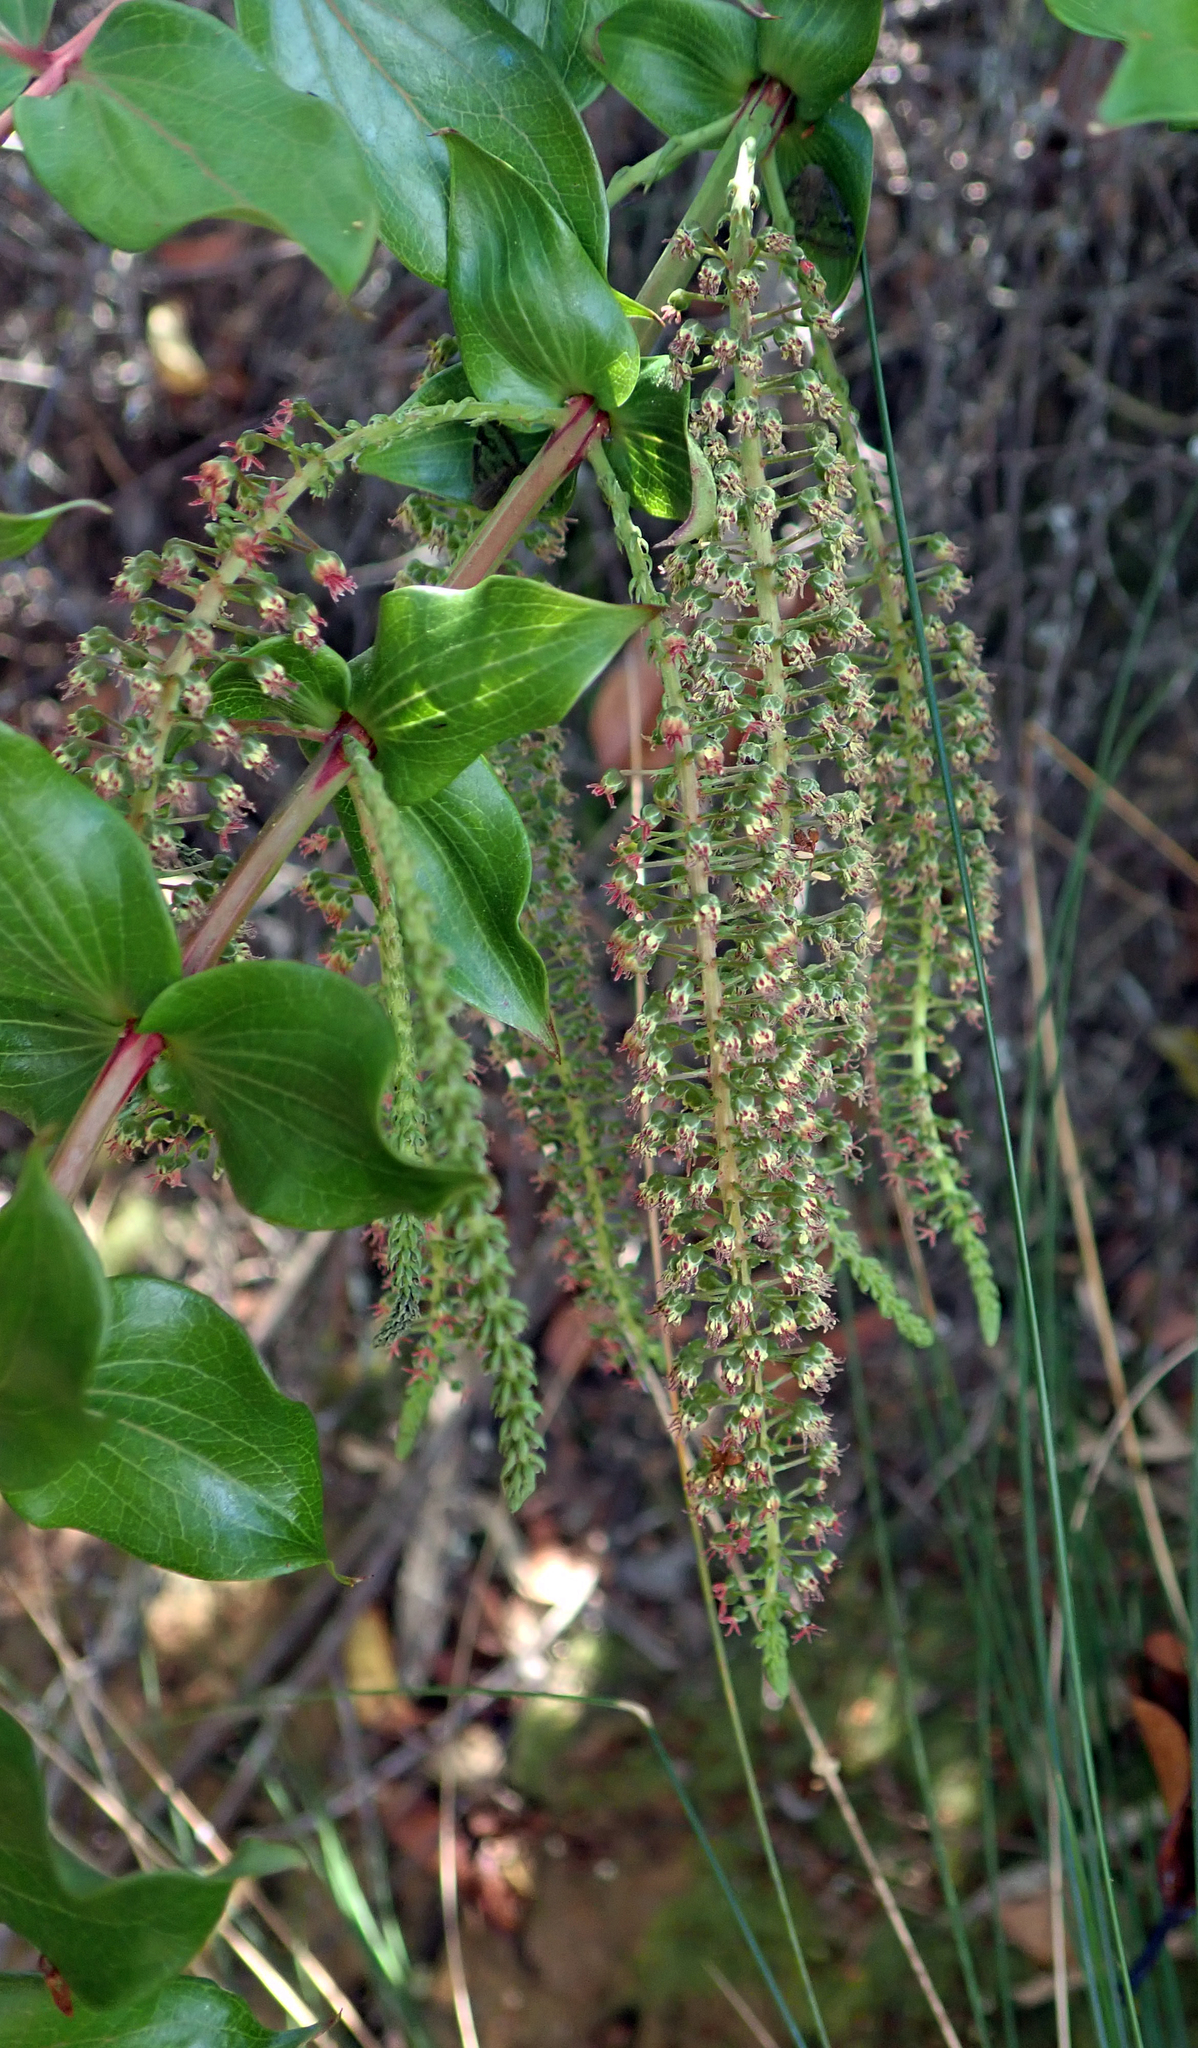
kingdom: Plantae
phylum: Tracheophyta
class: Magnoliopsida
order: Cucurbitales
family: Coriariaceae
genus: Coriaria
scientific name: Coriaria arborea
